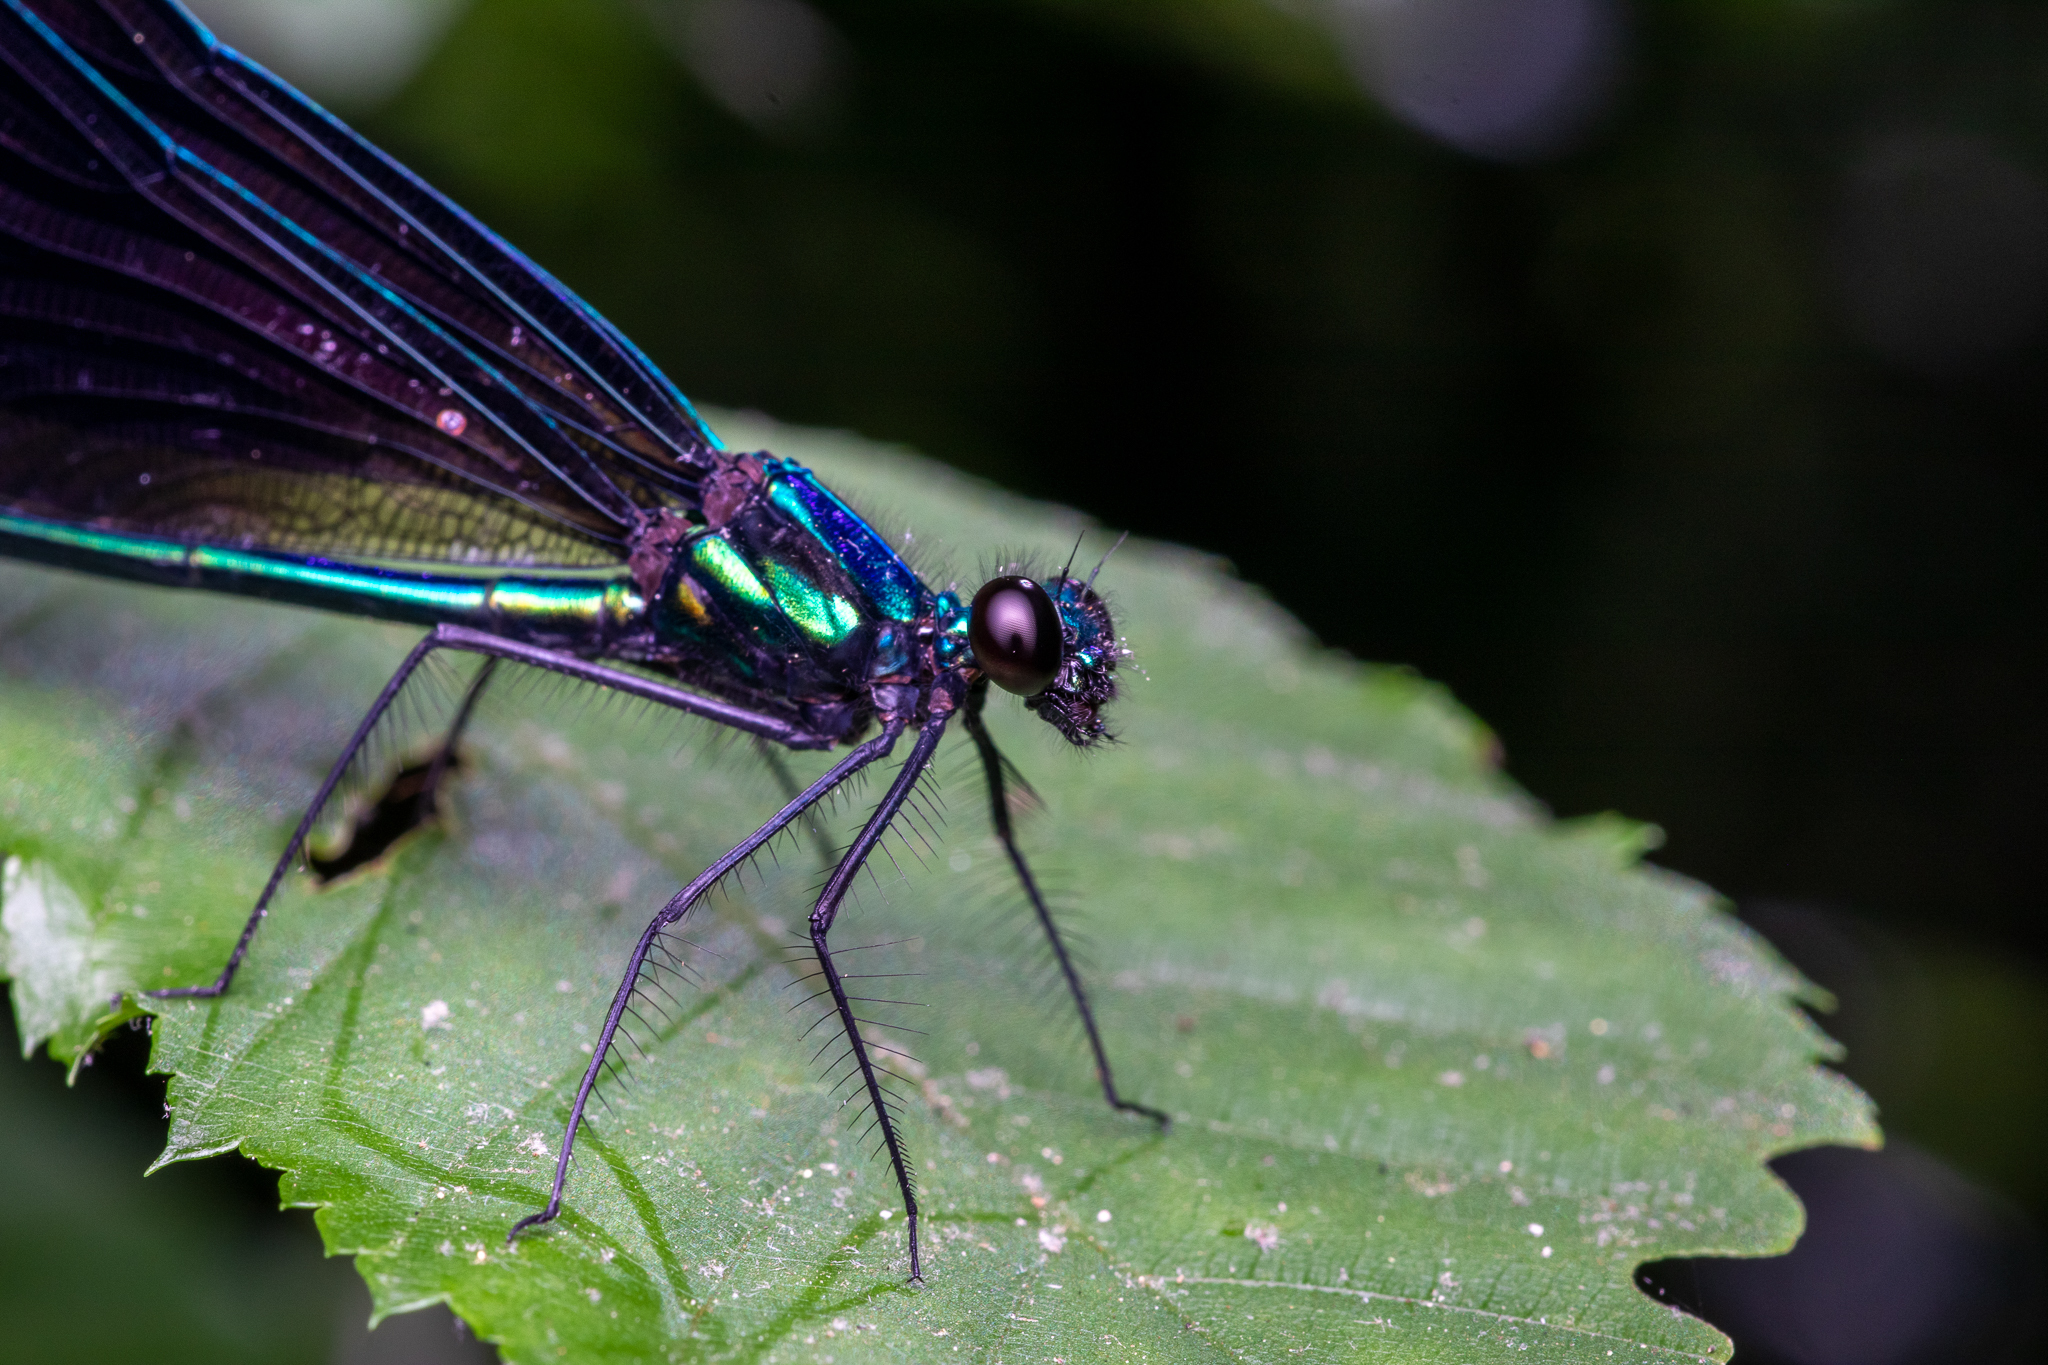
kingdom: Animalia
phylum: Arthropoda
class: Insecta
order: Odonata
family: Calopterygidae
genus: Calopteryx
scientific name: Calopteryx maculata
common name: Ebony jewelwing
